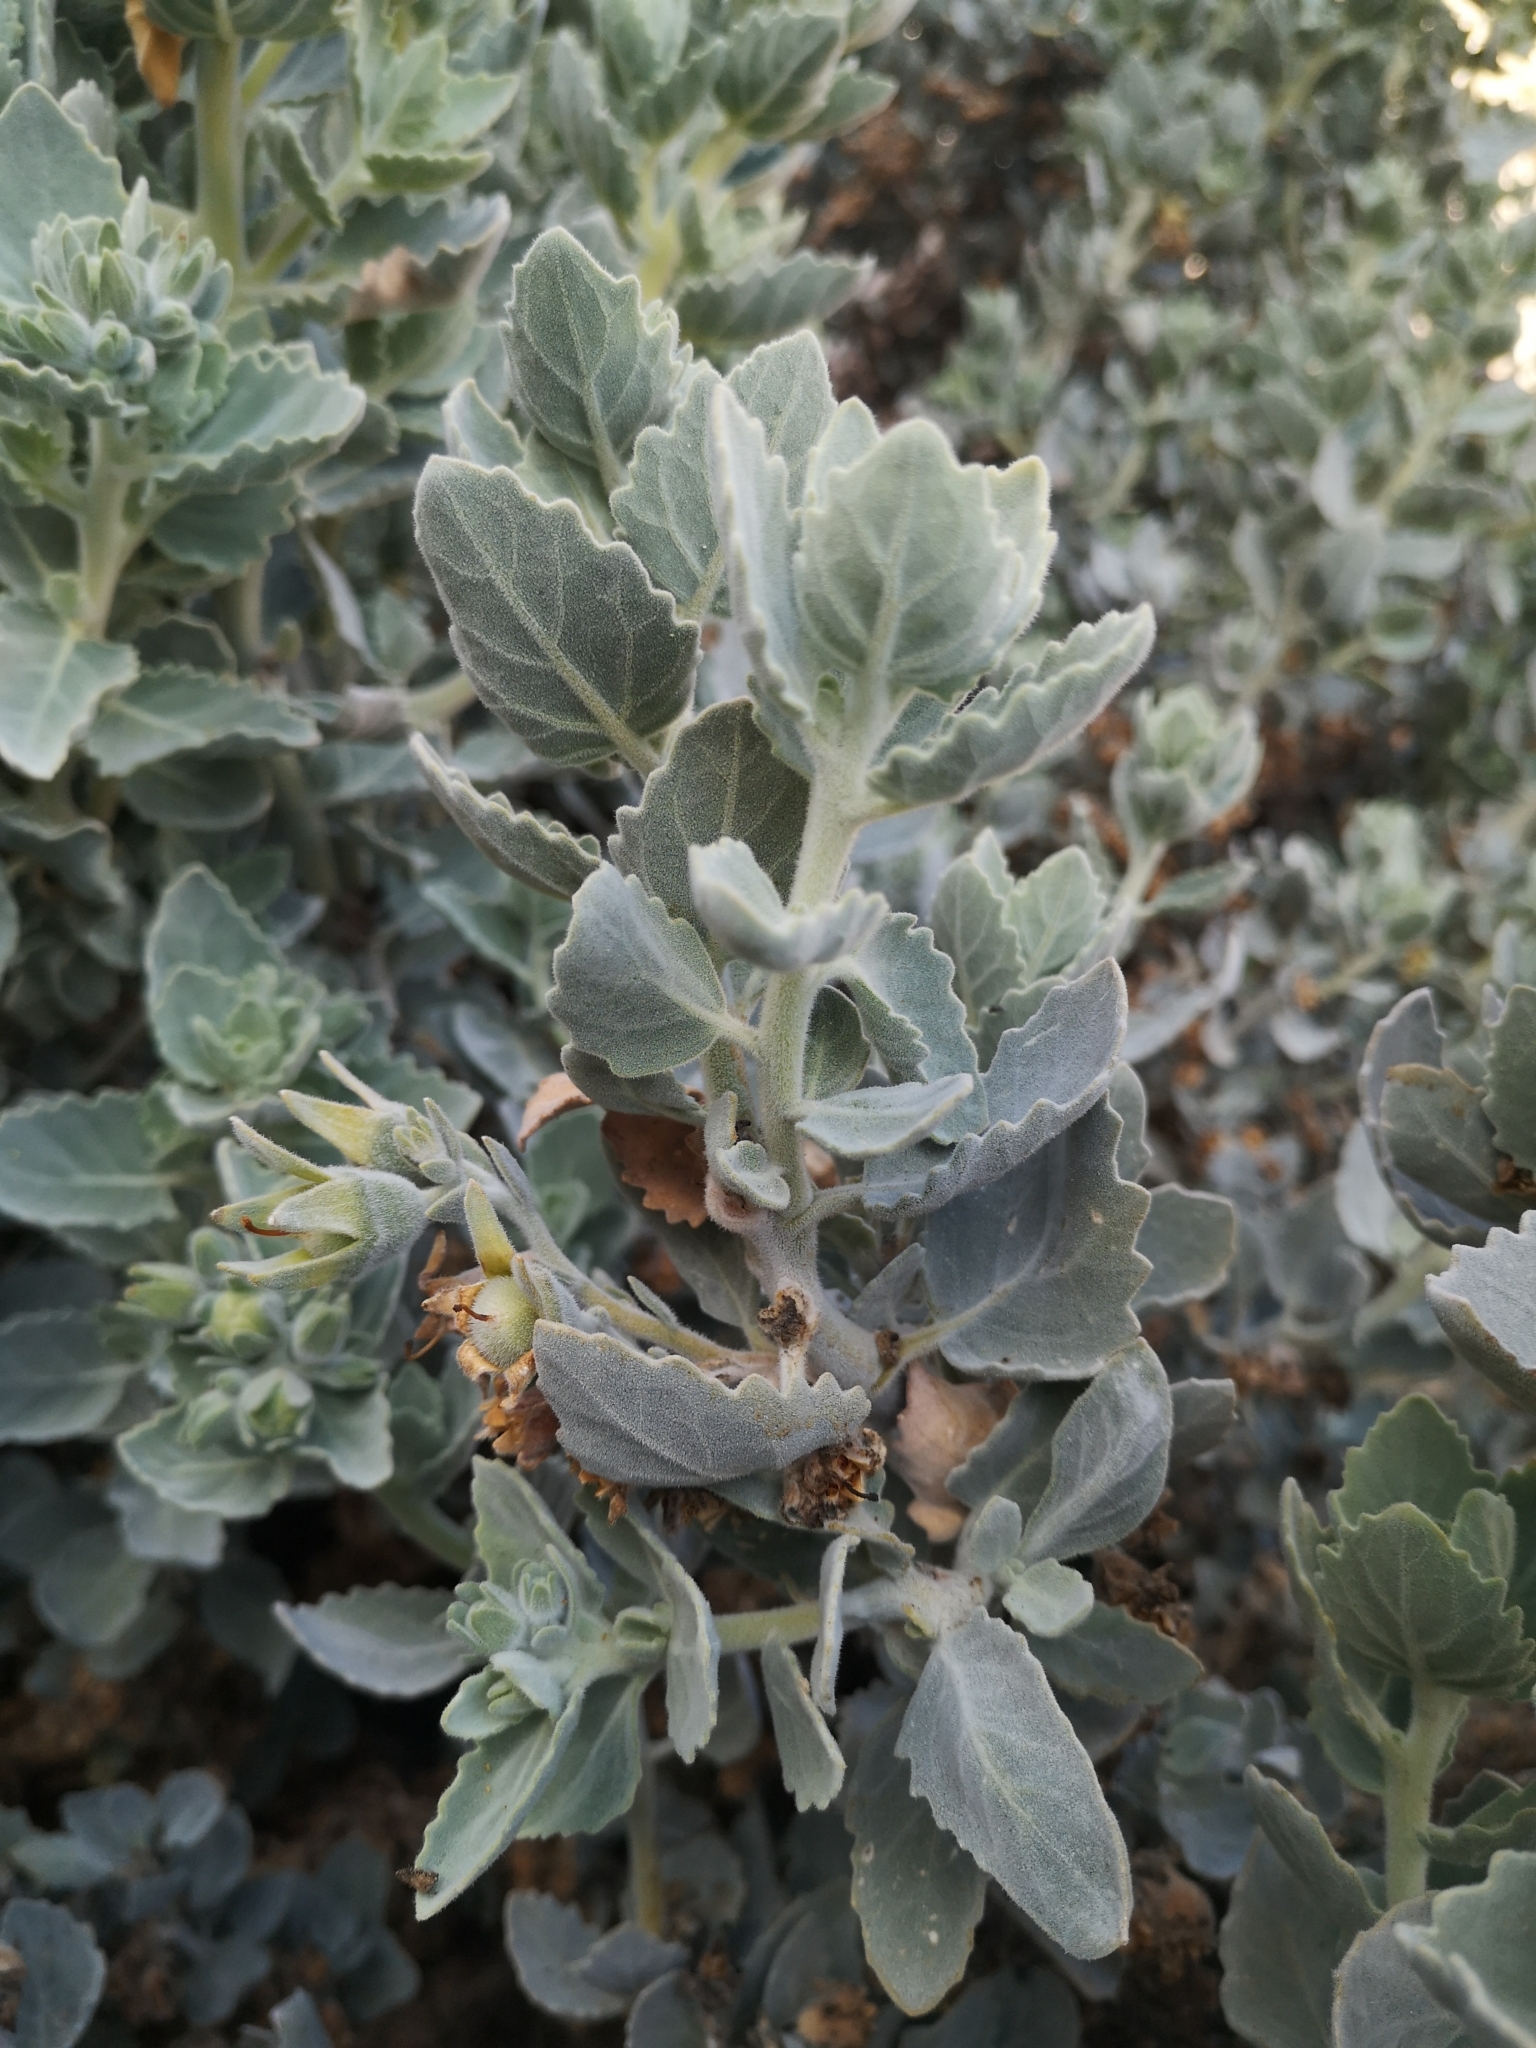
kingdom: Plantae
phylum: Tracheophyta
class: Magnoliopsida
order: Cornales
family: Loasaceae
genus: Huidobria
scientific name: Huidobria fruticosa
